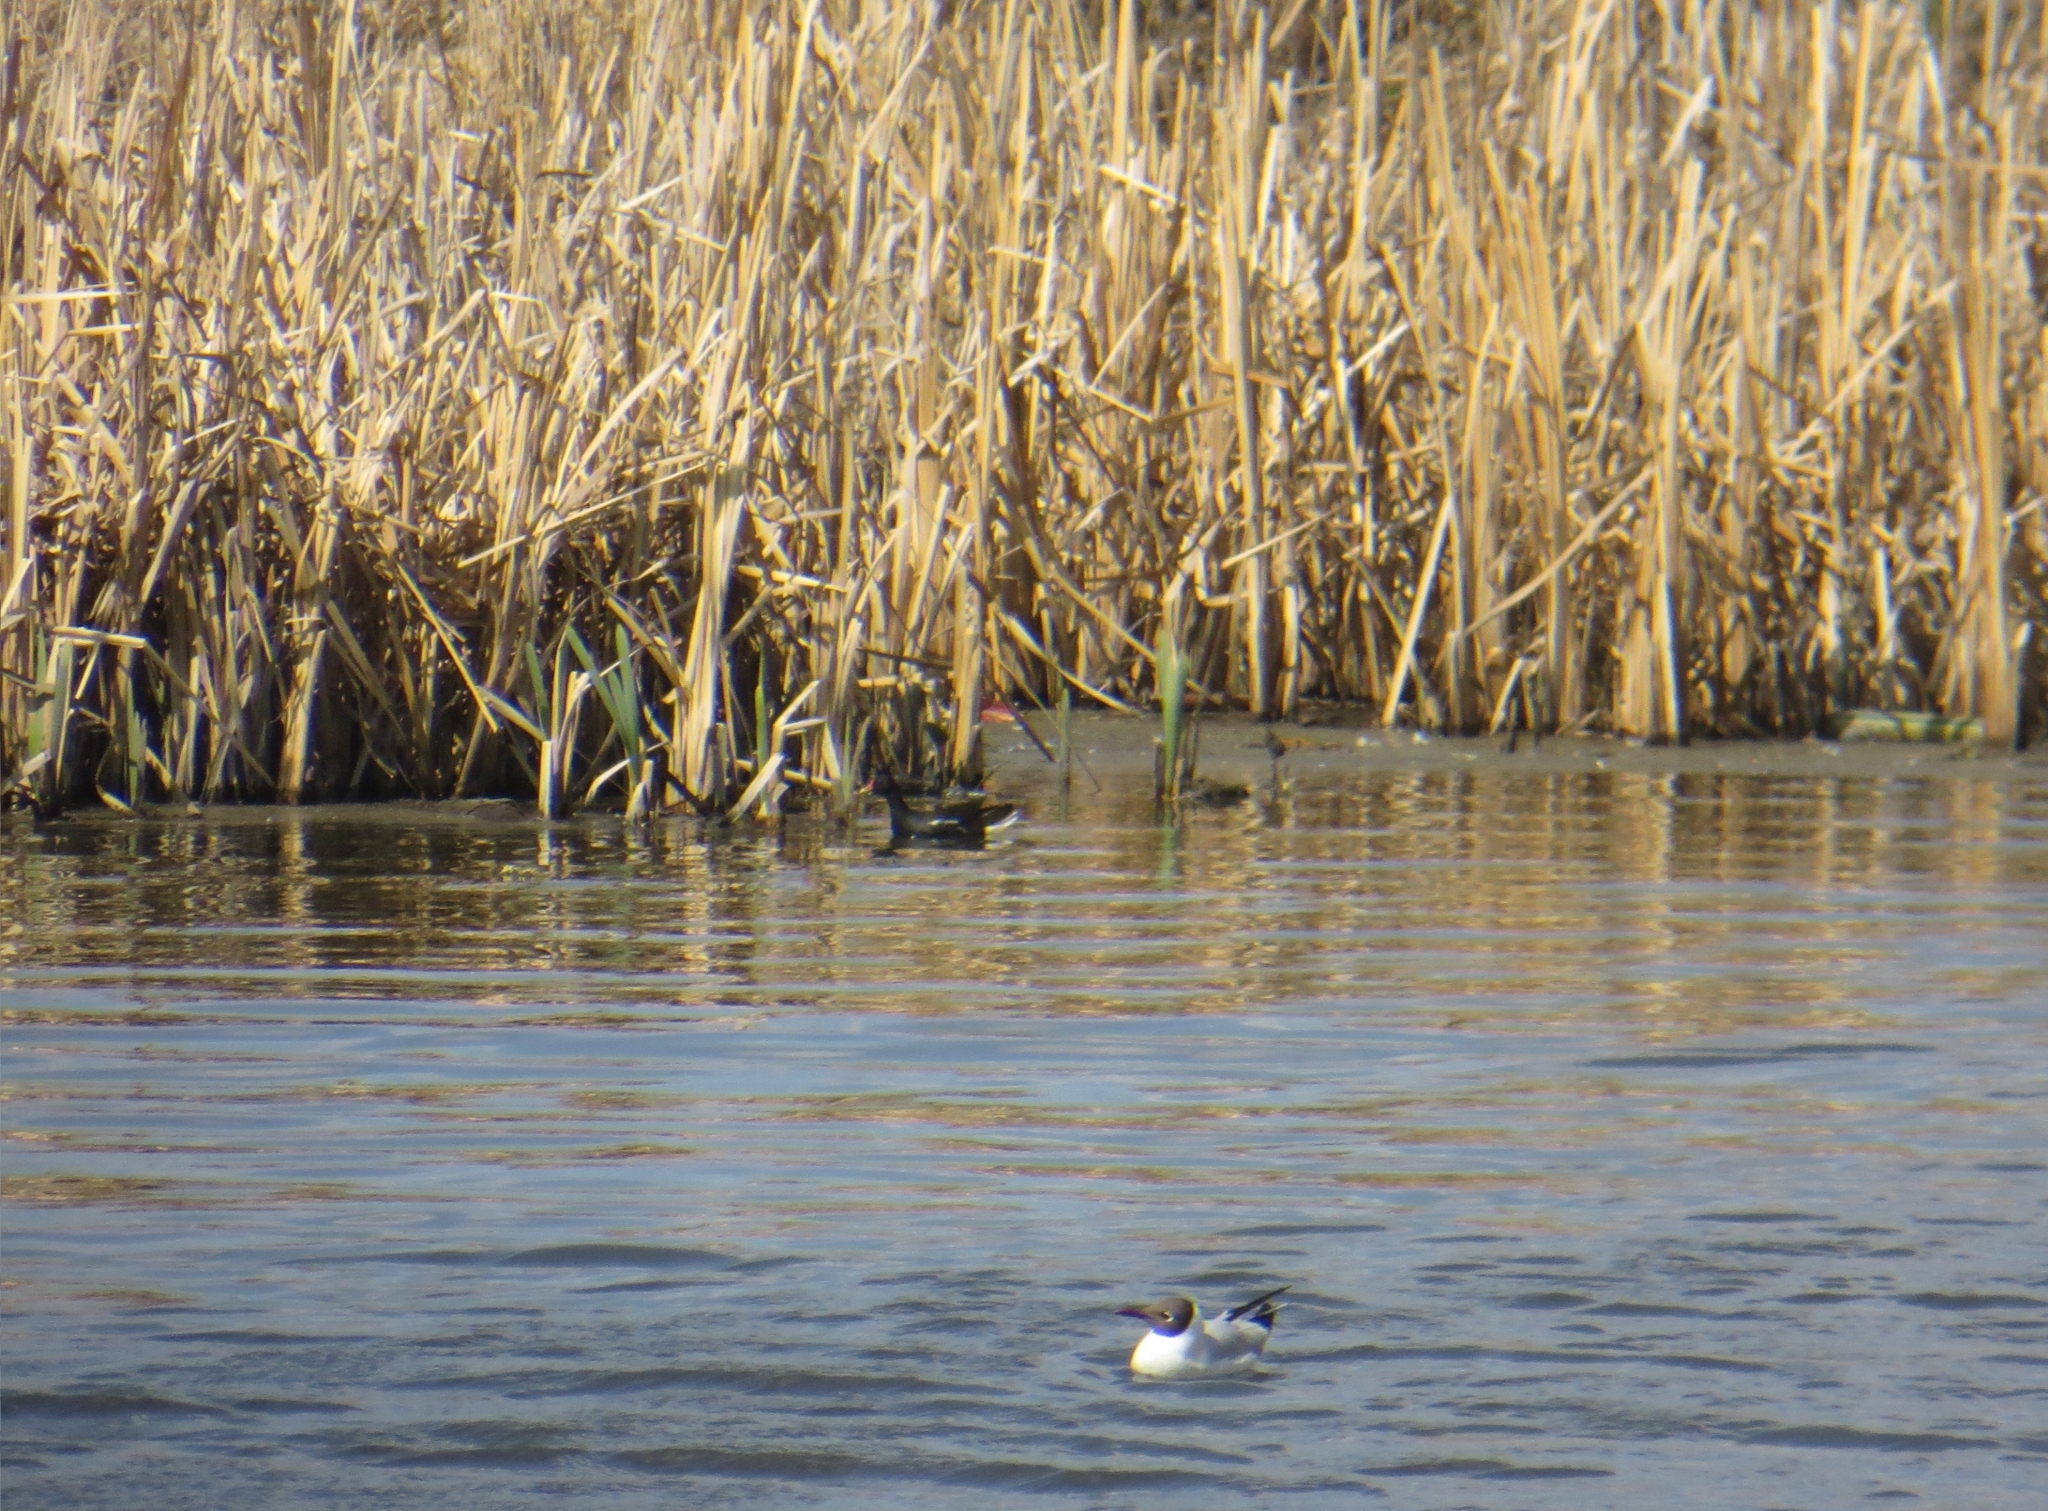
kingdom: Animalia
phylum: Chordata
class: Aves
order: Gruiformes
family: Rallidae
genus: Gallinula
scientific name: Gallinula chloropus
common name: Common moorhen
